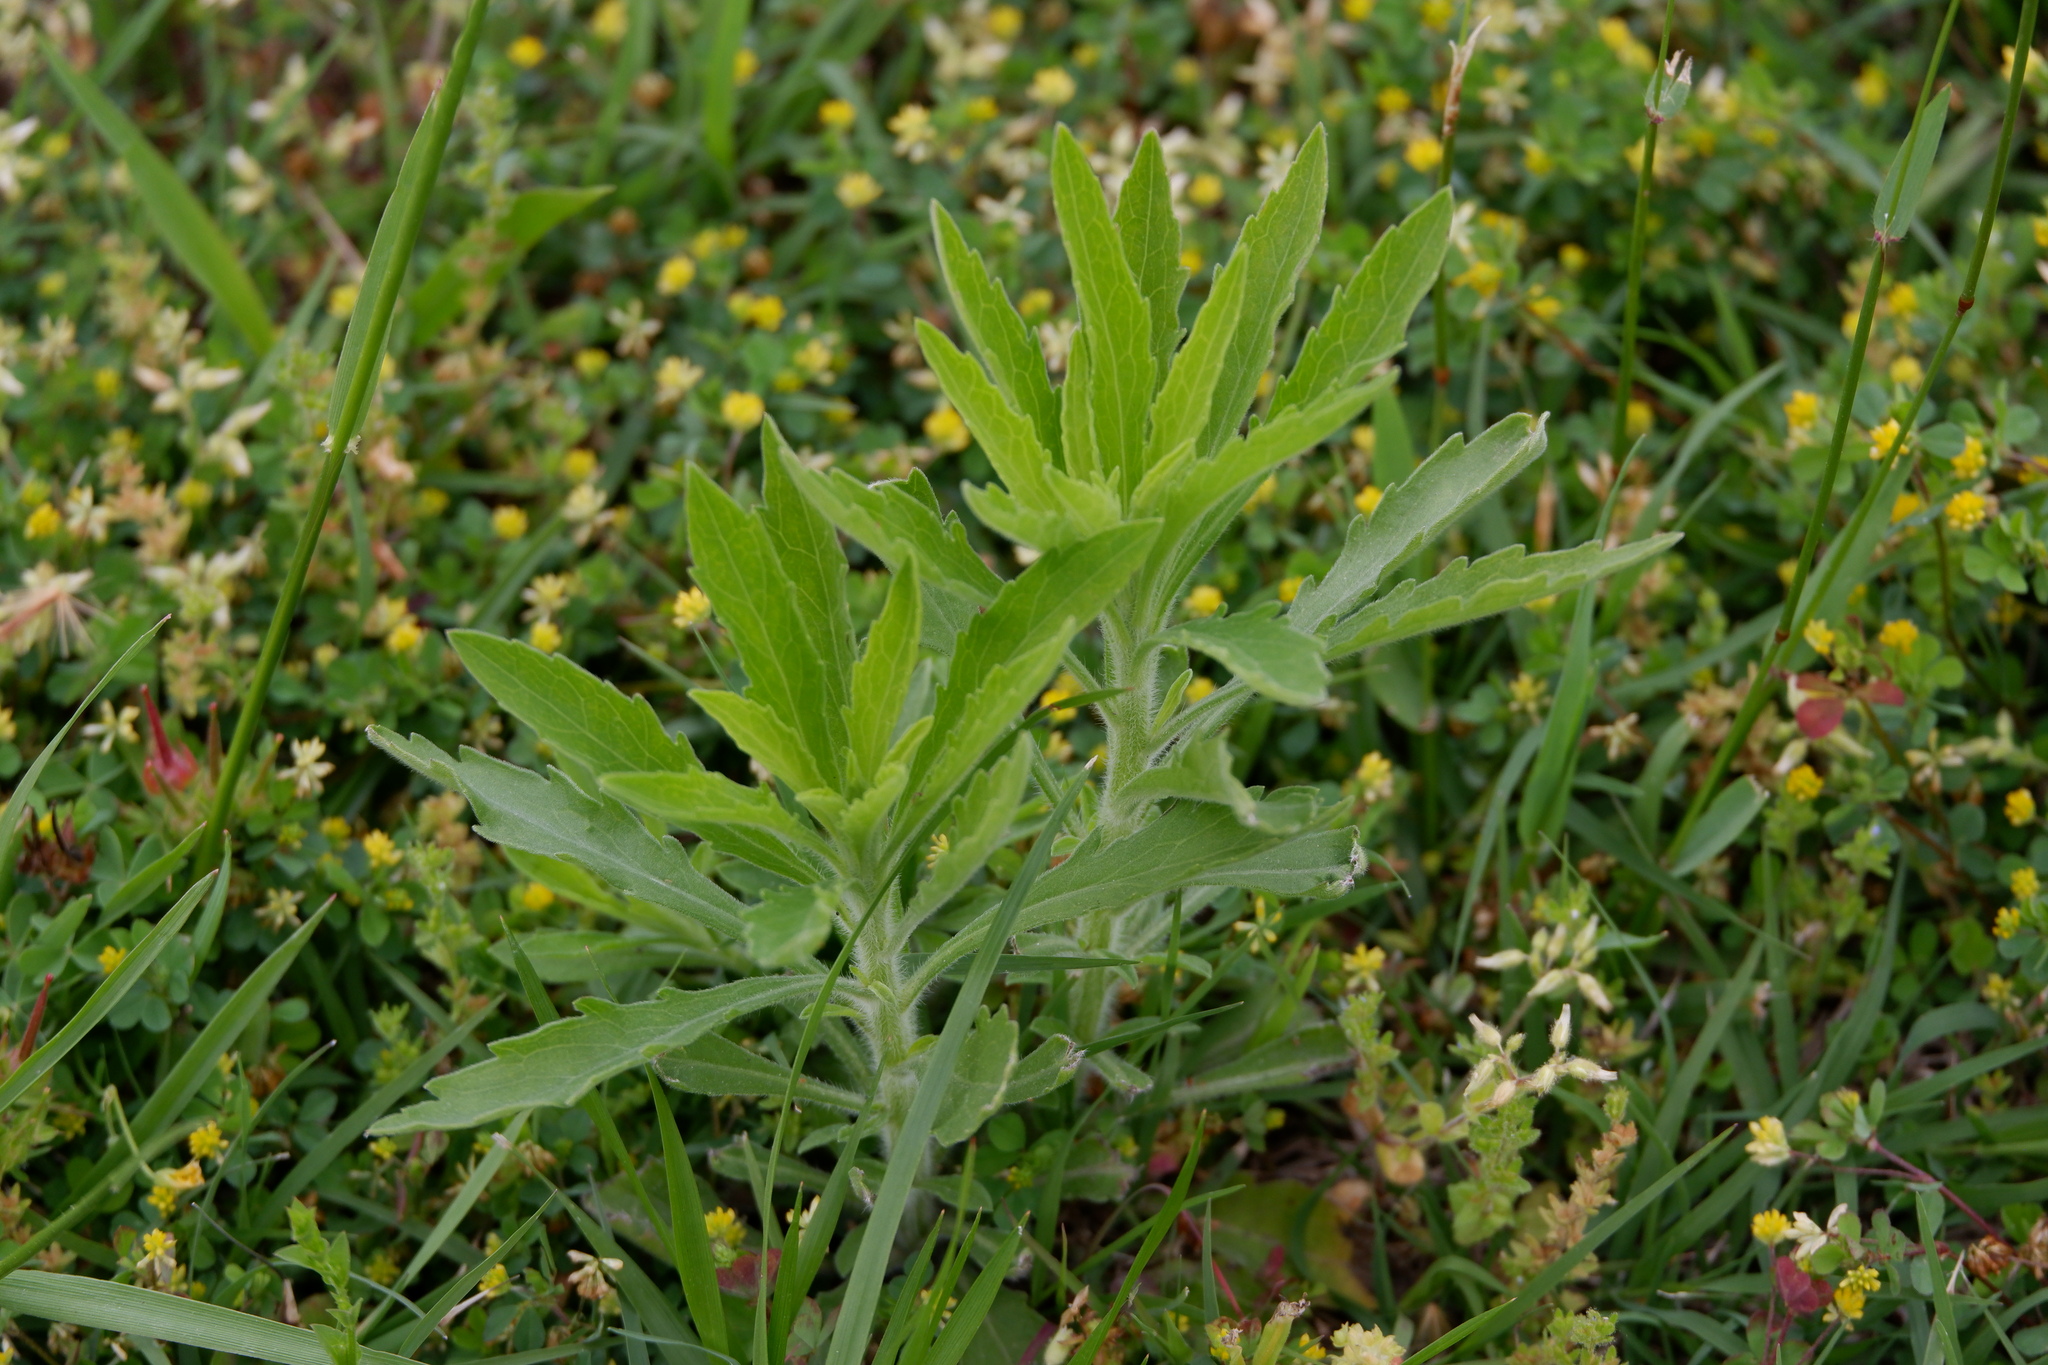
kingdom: Plantae
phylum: Tracheophyta
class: Magnoliopsida
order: Asterales
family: Asteraceae
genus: Erigeron
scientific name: Erigeron canadensis
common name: Canadian fleabane
